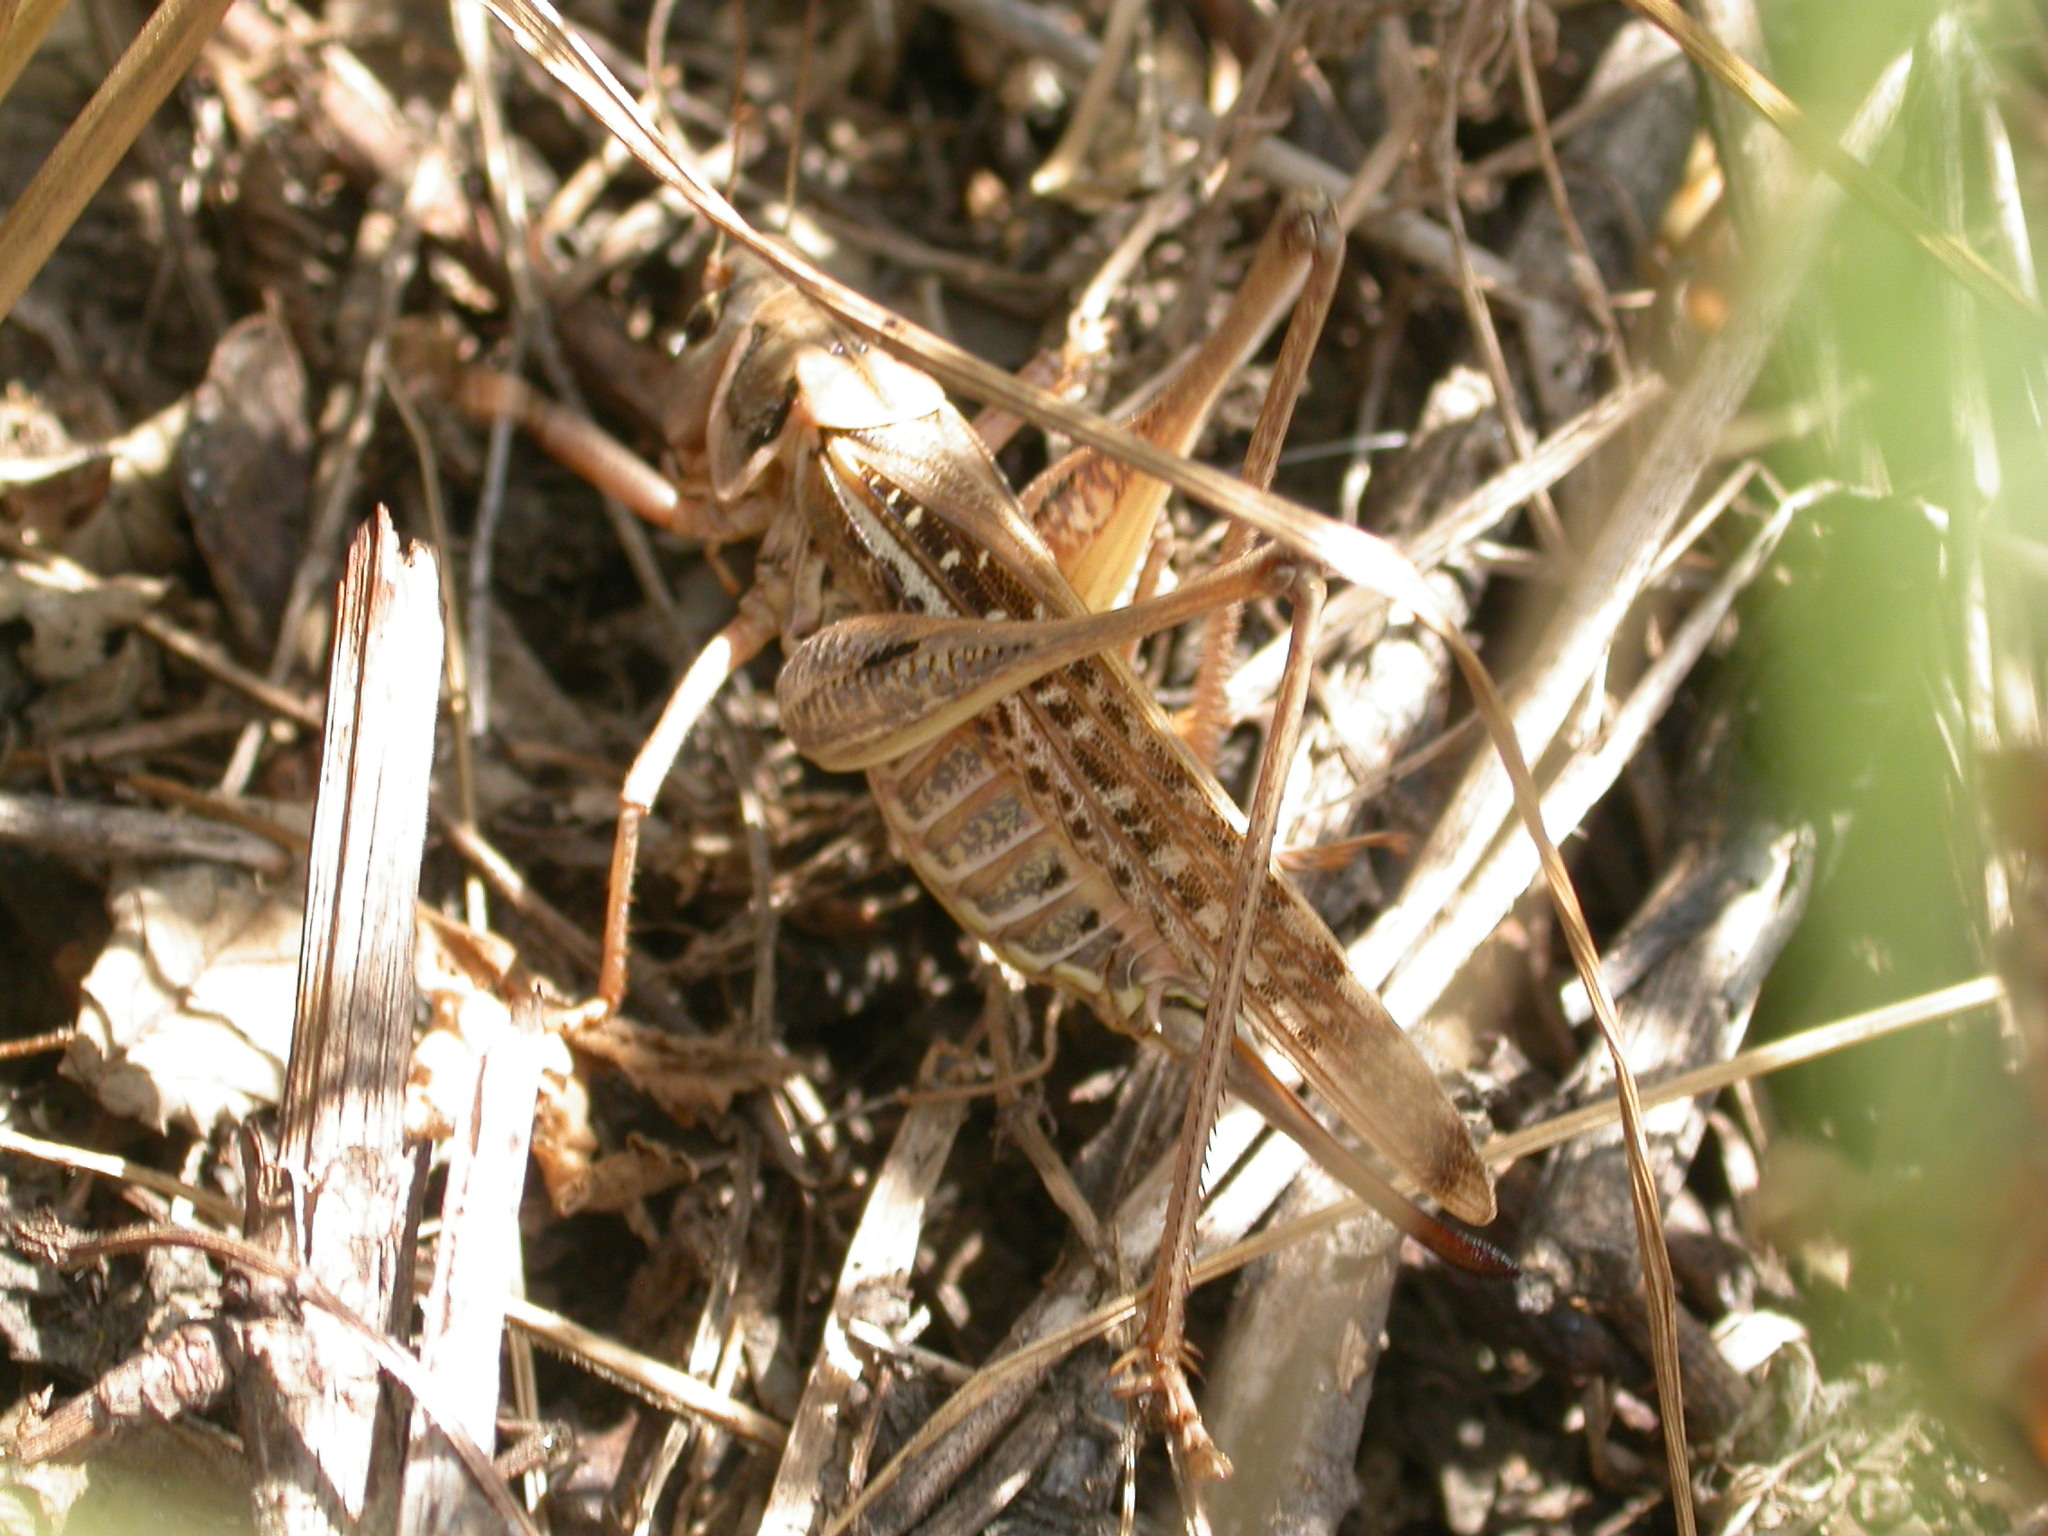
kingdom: Animalia
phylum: Arthropoda
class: Insecta
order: Orthoptera
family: Tettigoniidae
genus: Decticus
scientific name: Decticus albifrons
